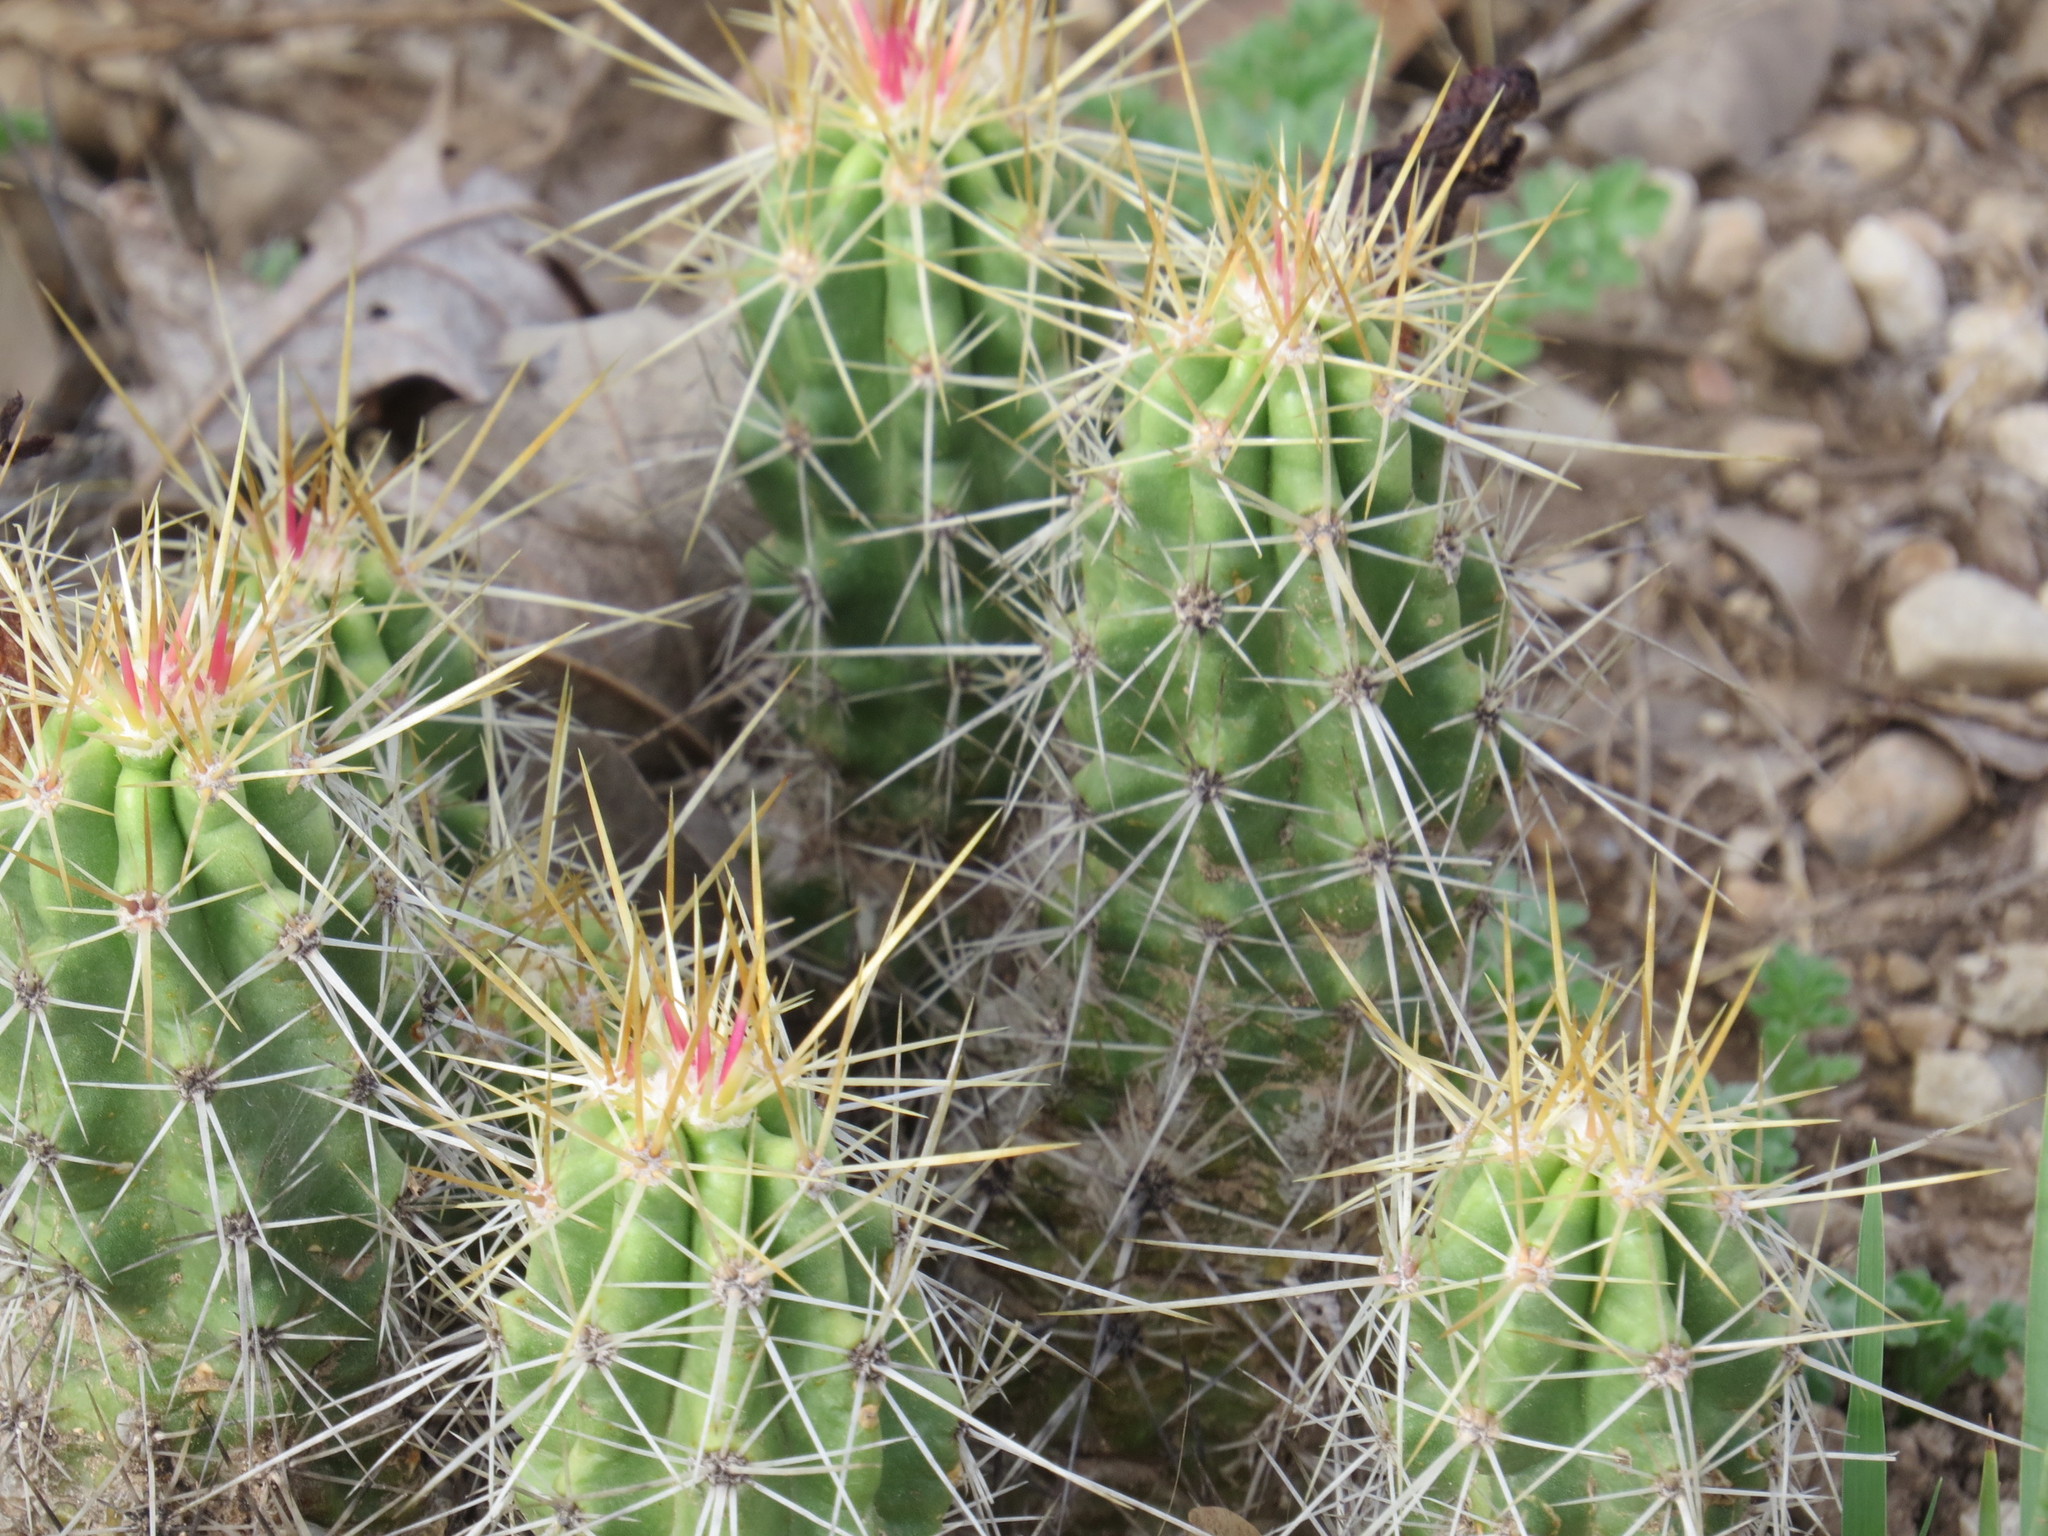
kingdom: Plantae
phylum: Tracheophyta
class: Magnoliopsida
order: Caryophyllales
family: Cactaceae
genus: Echinocereus
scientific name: Echinocereus enneacanthus
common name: Pitaya
